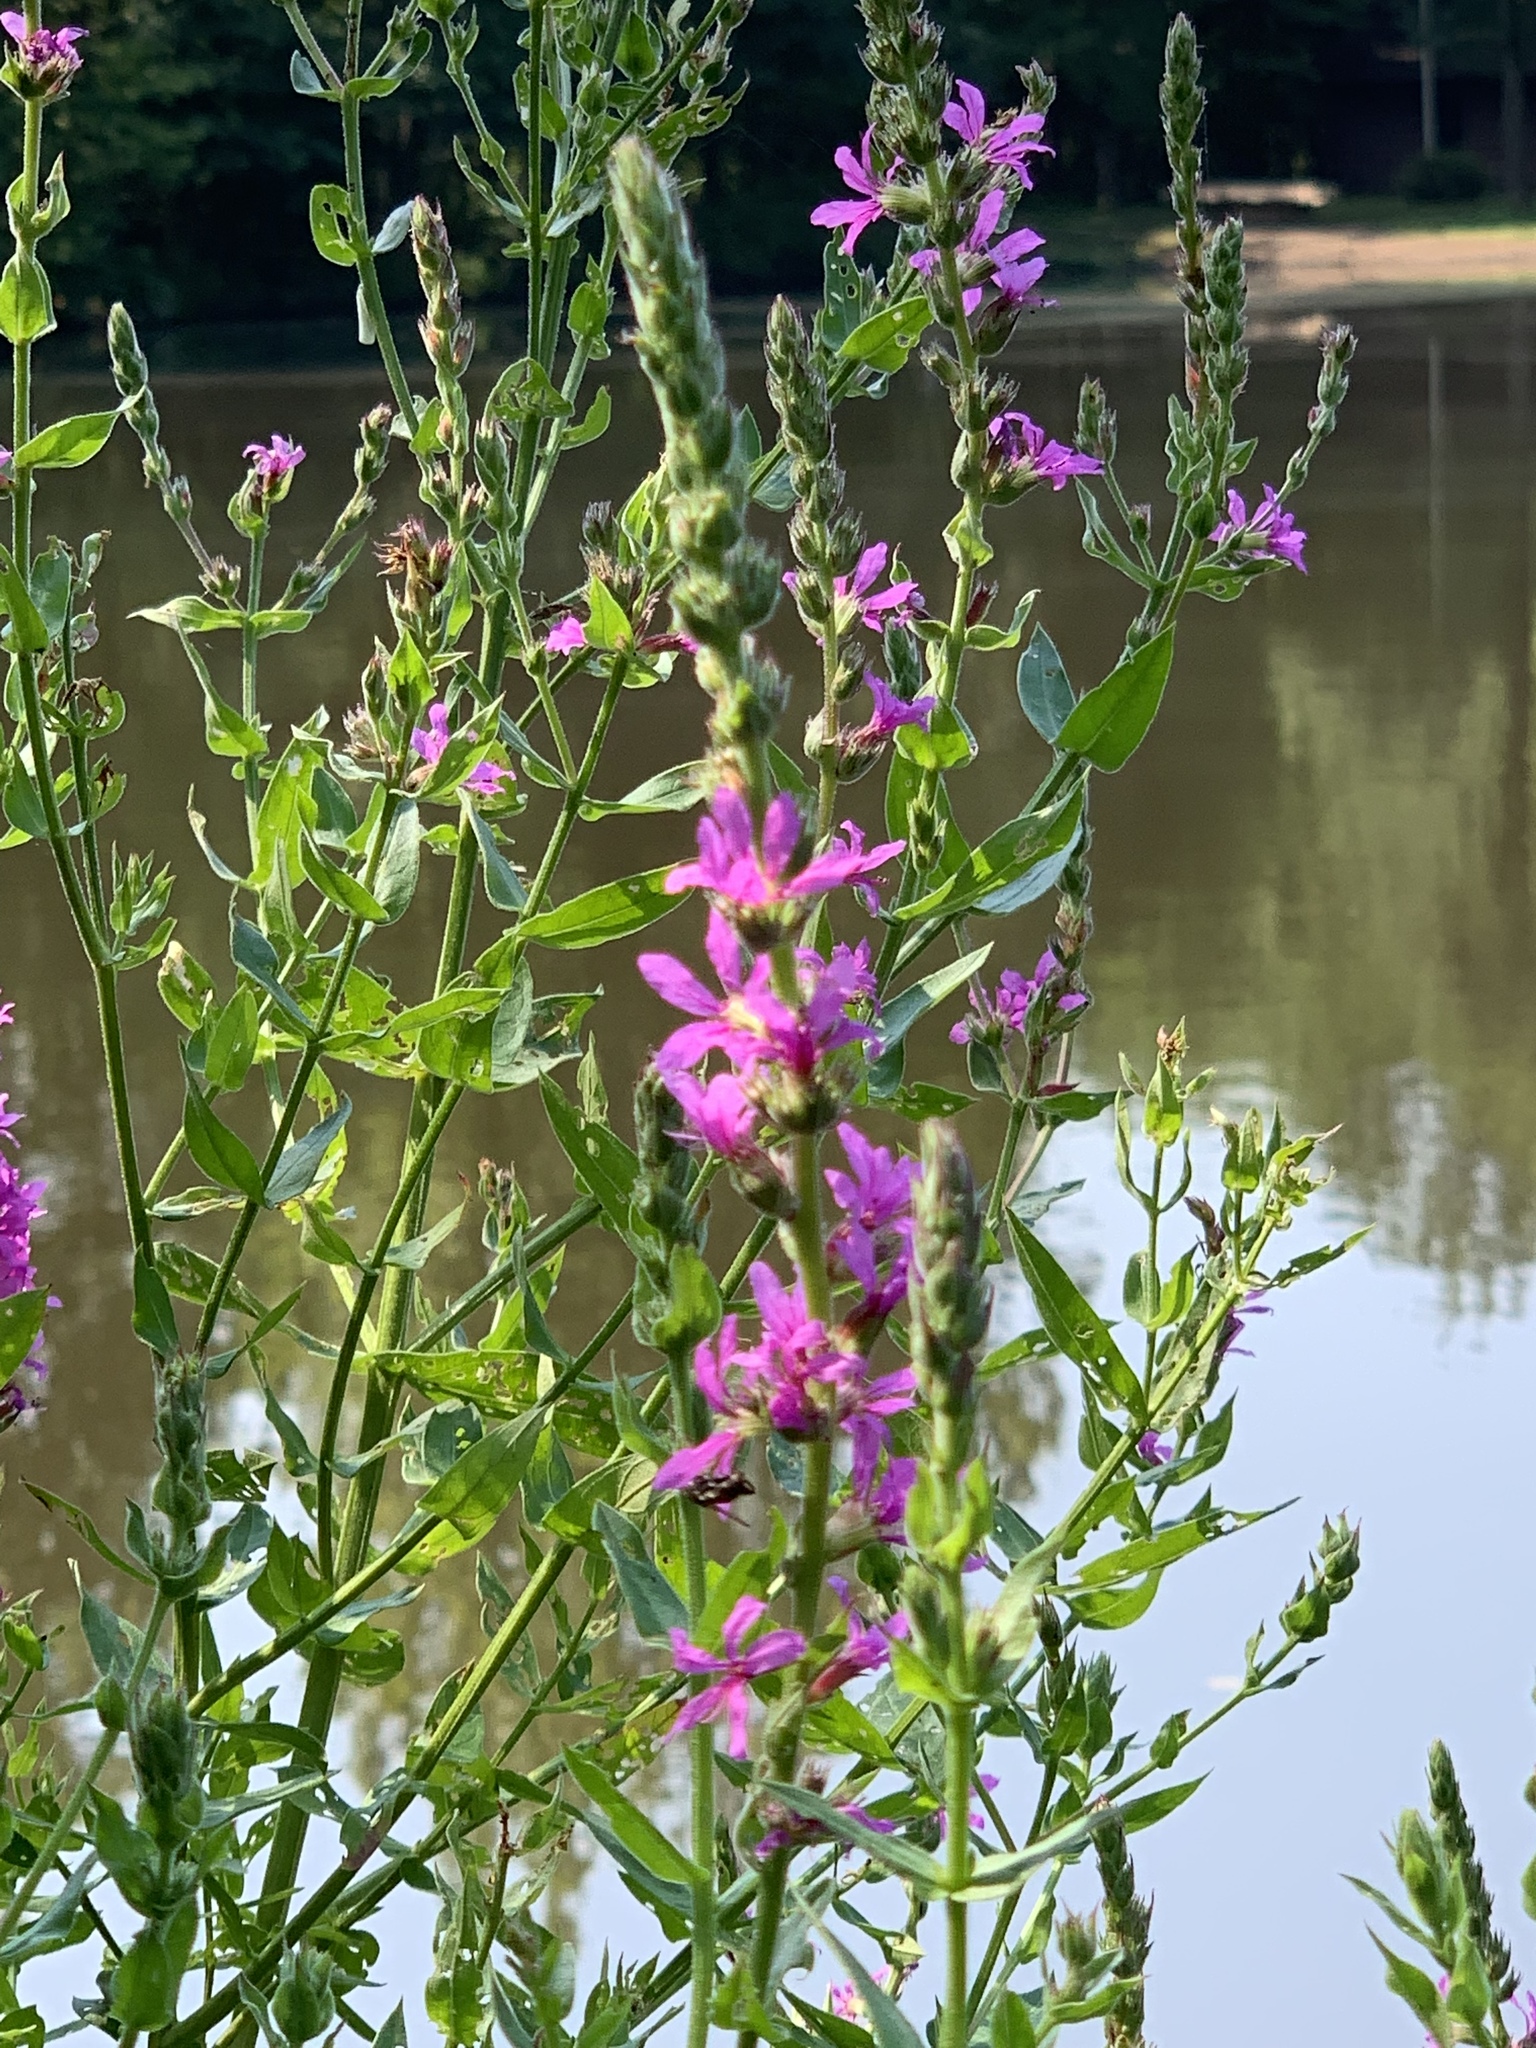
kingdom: Plantae
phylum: Tracheophyta
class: Magnoliopsida
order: Myrtales
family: Lythraceae
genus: Lythrum
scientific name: Lythrum salicaria
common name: Purple loosestrife
